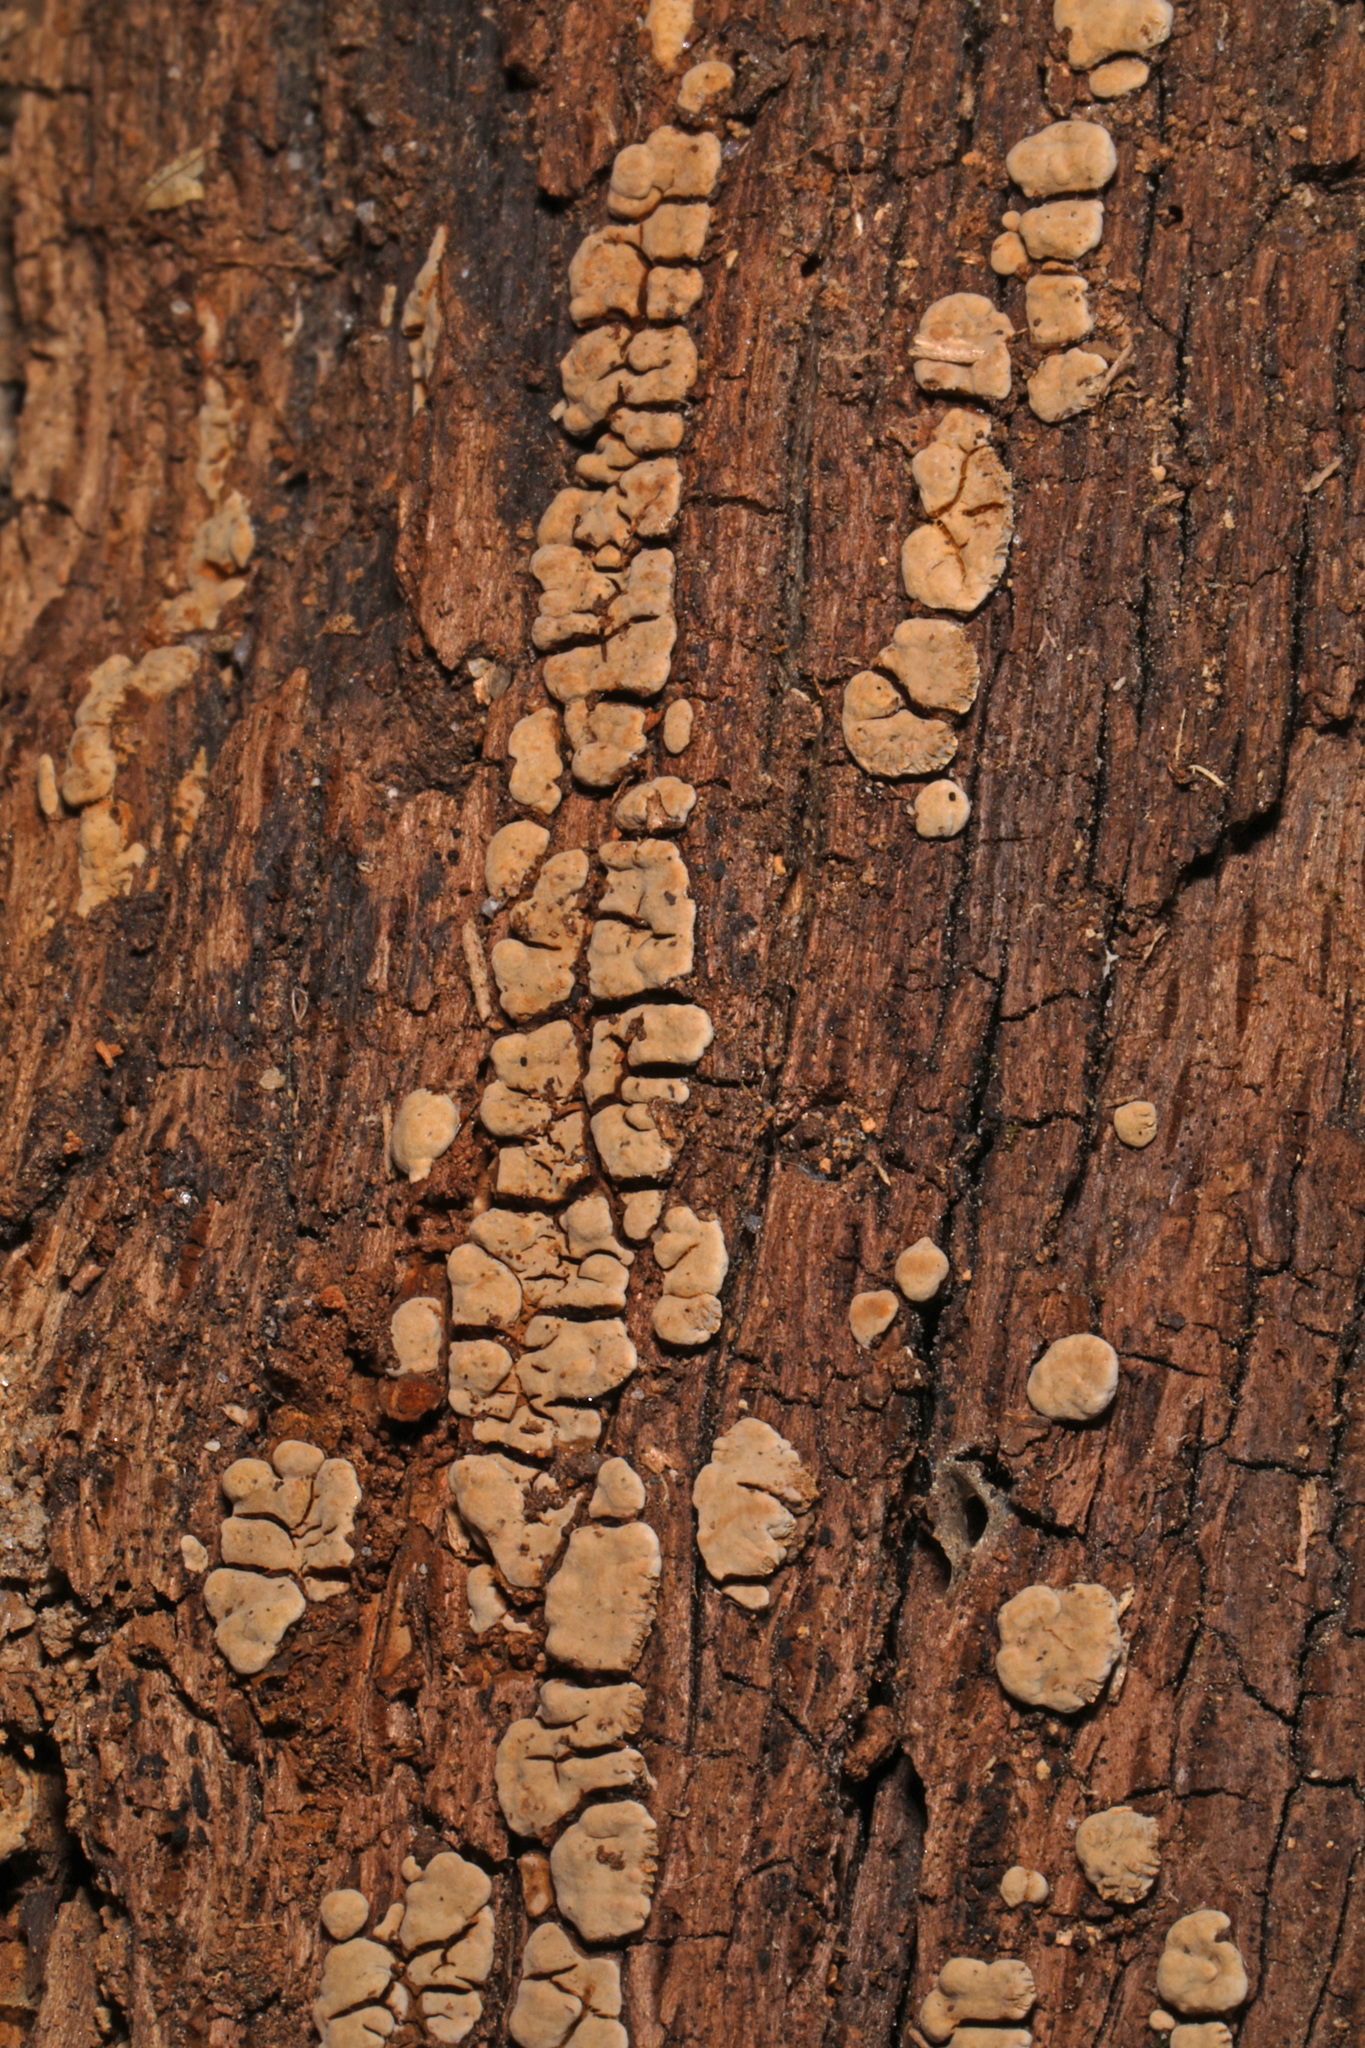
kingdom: Fungi
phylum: Basidiomycota
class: Agaricomycetes
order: Russulales
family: Stereaceae
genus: Xylobolus
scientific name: Xylobolus frustulatus
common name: Ceramic parchment
